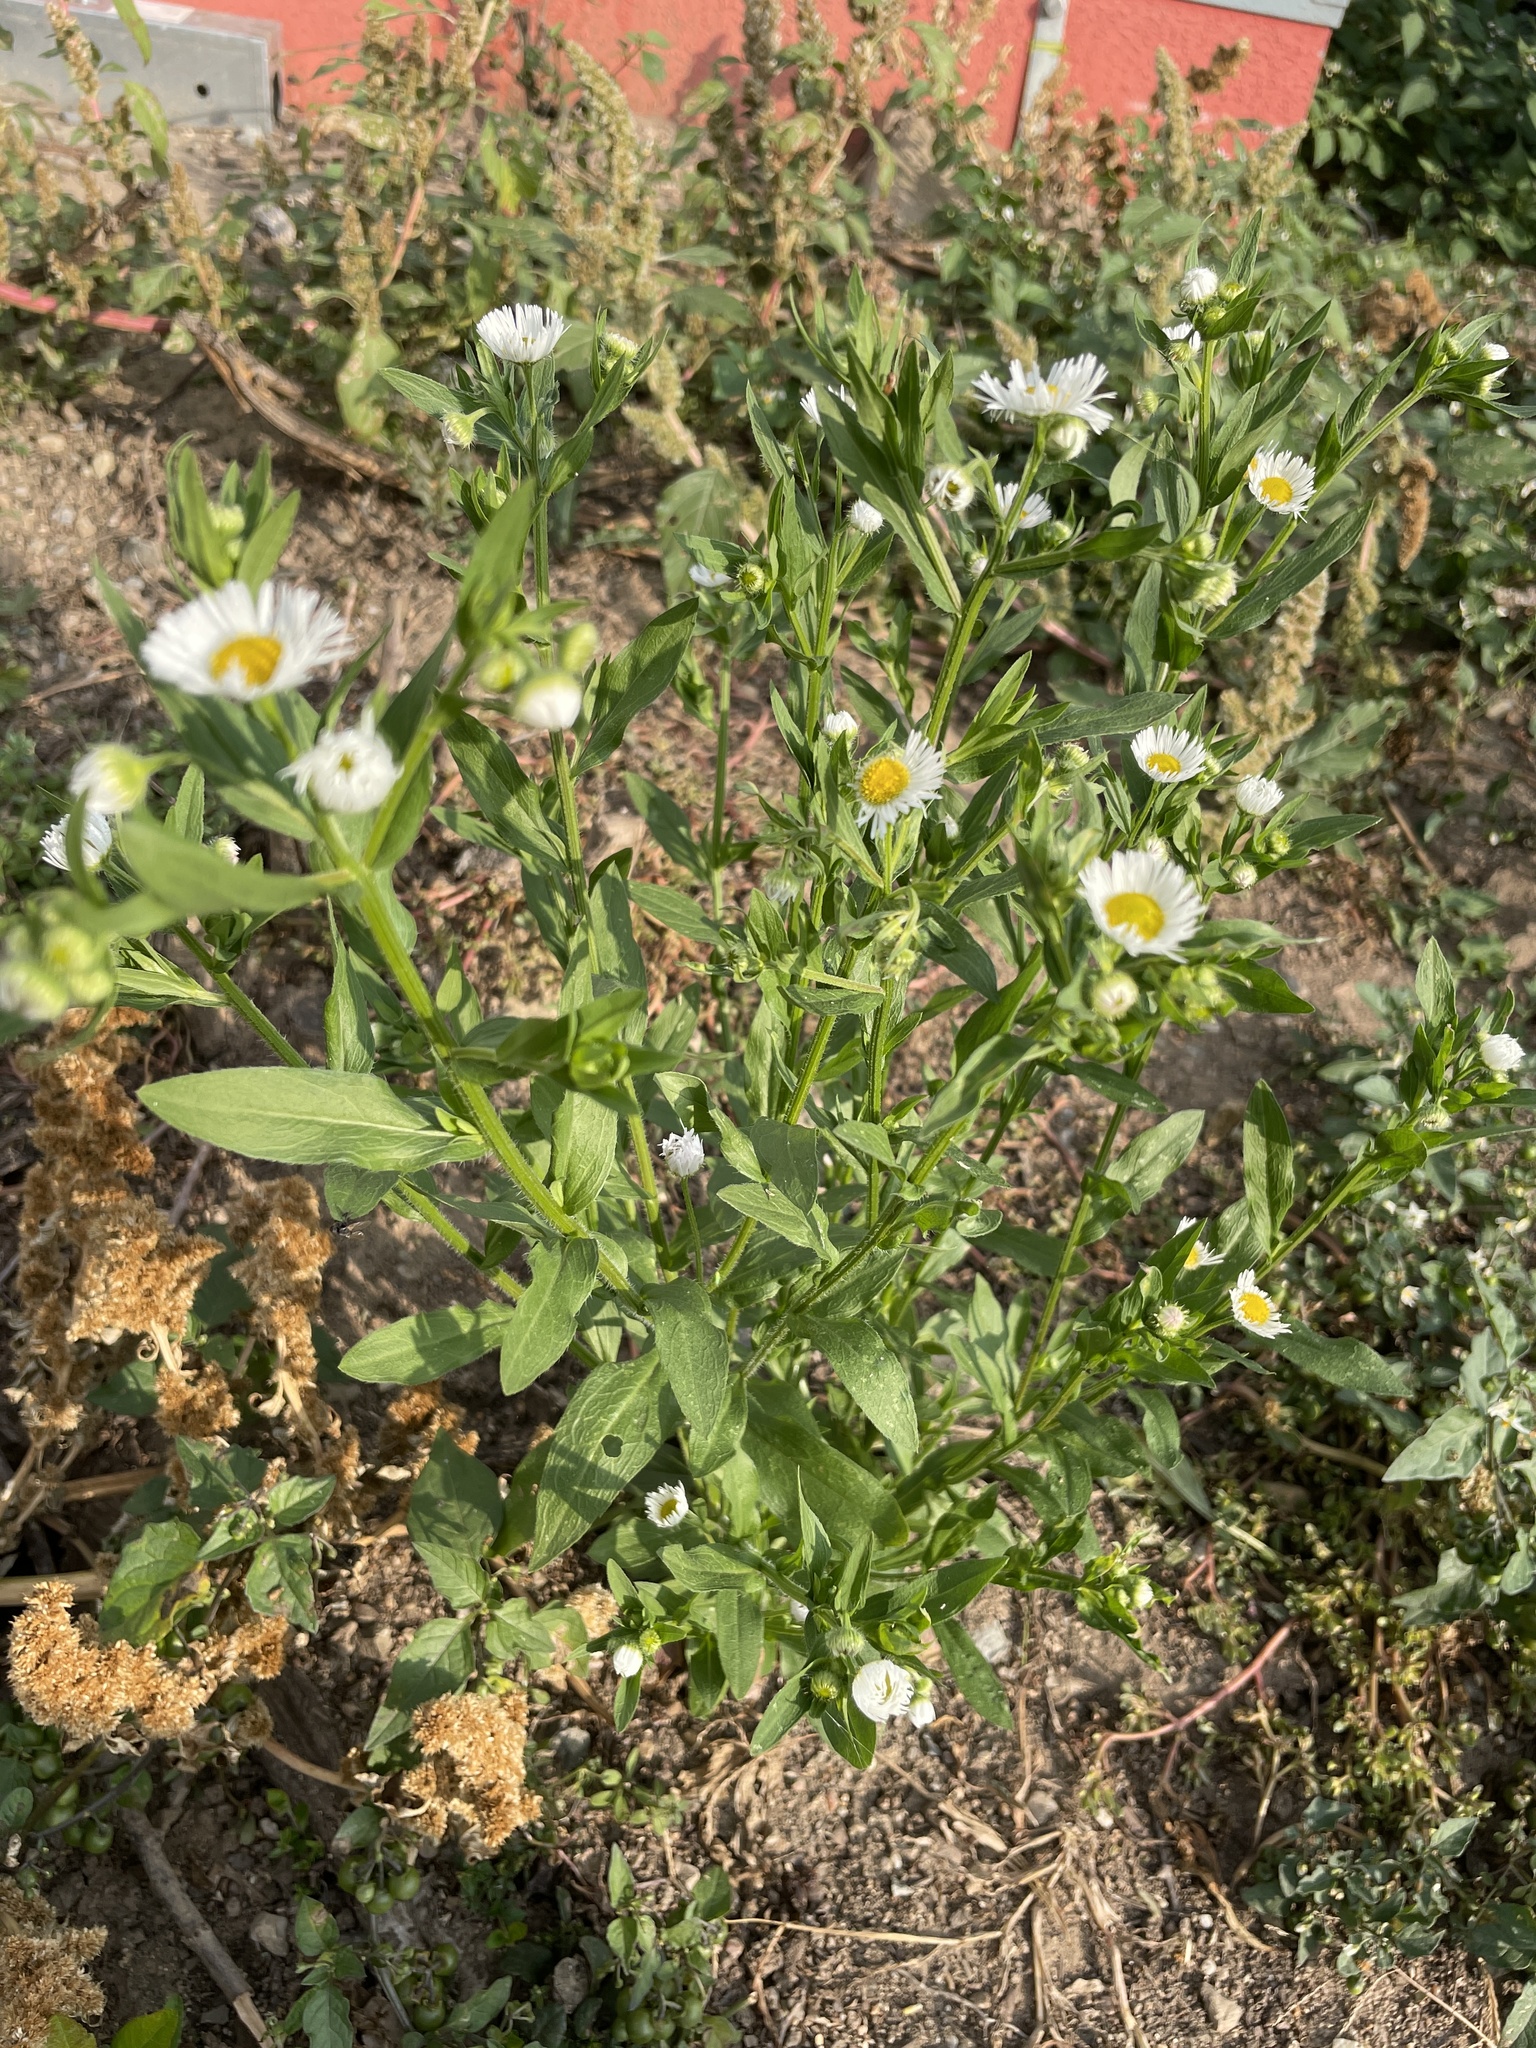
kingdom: Plantae
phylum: Tracheophyta
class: Magnoliopsida
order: Asterales
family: Asteraceae
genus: Erigeron
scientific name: Erigeron annuus
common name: Tall fleabane
